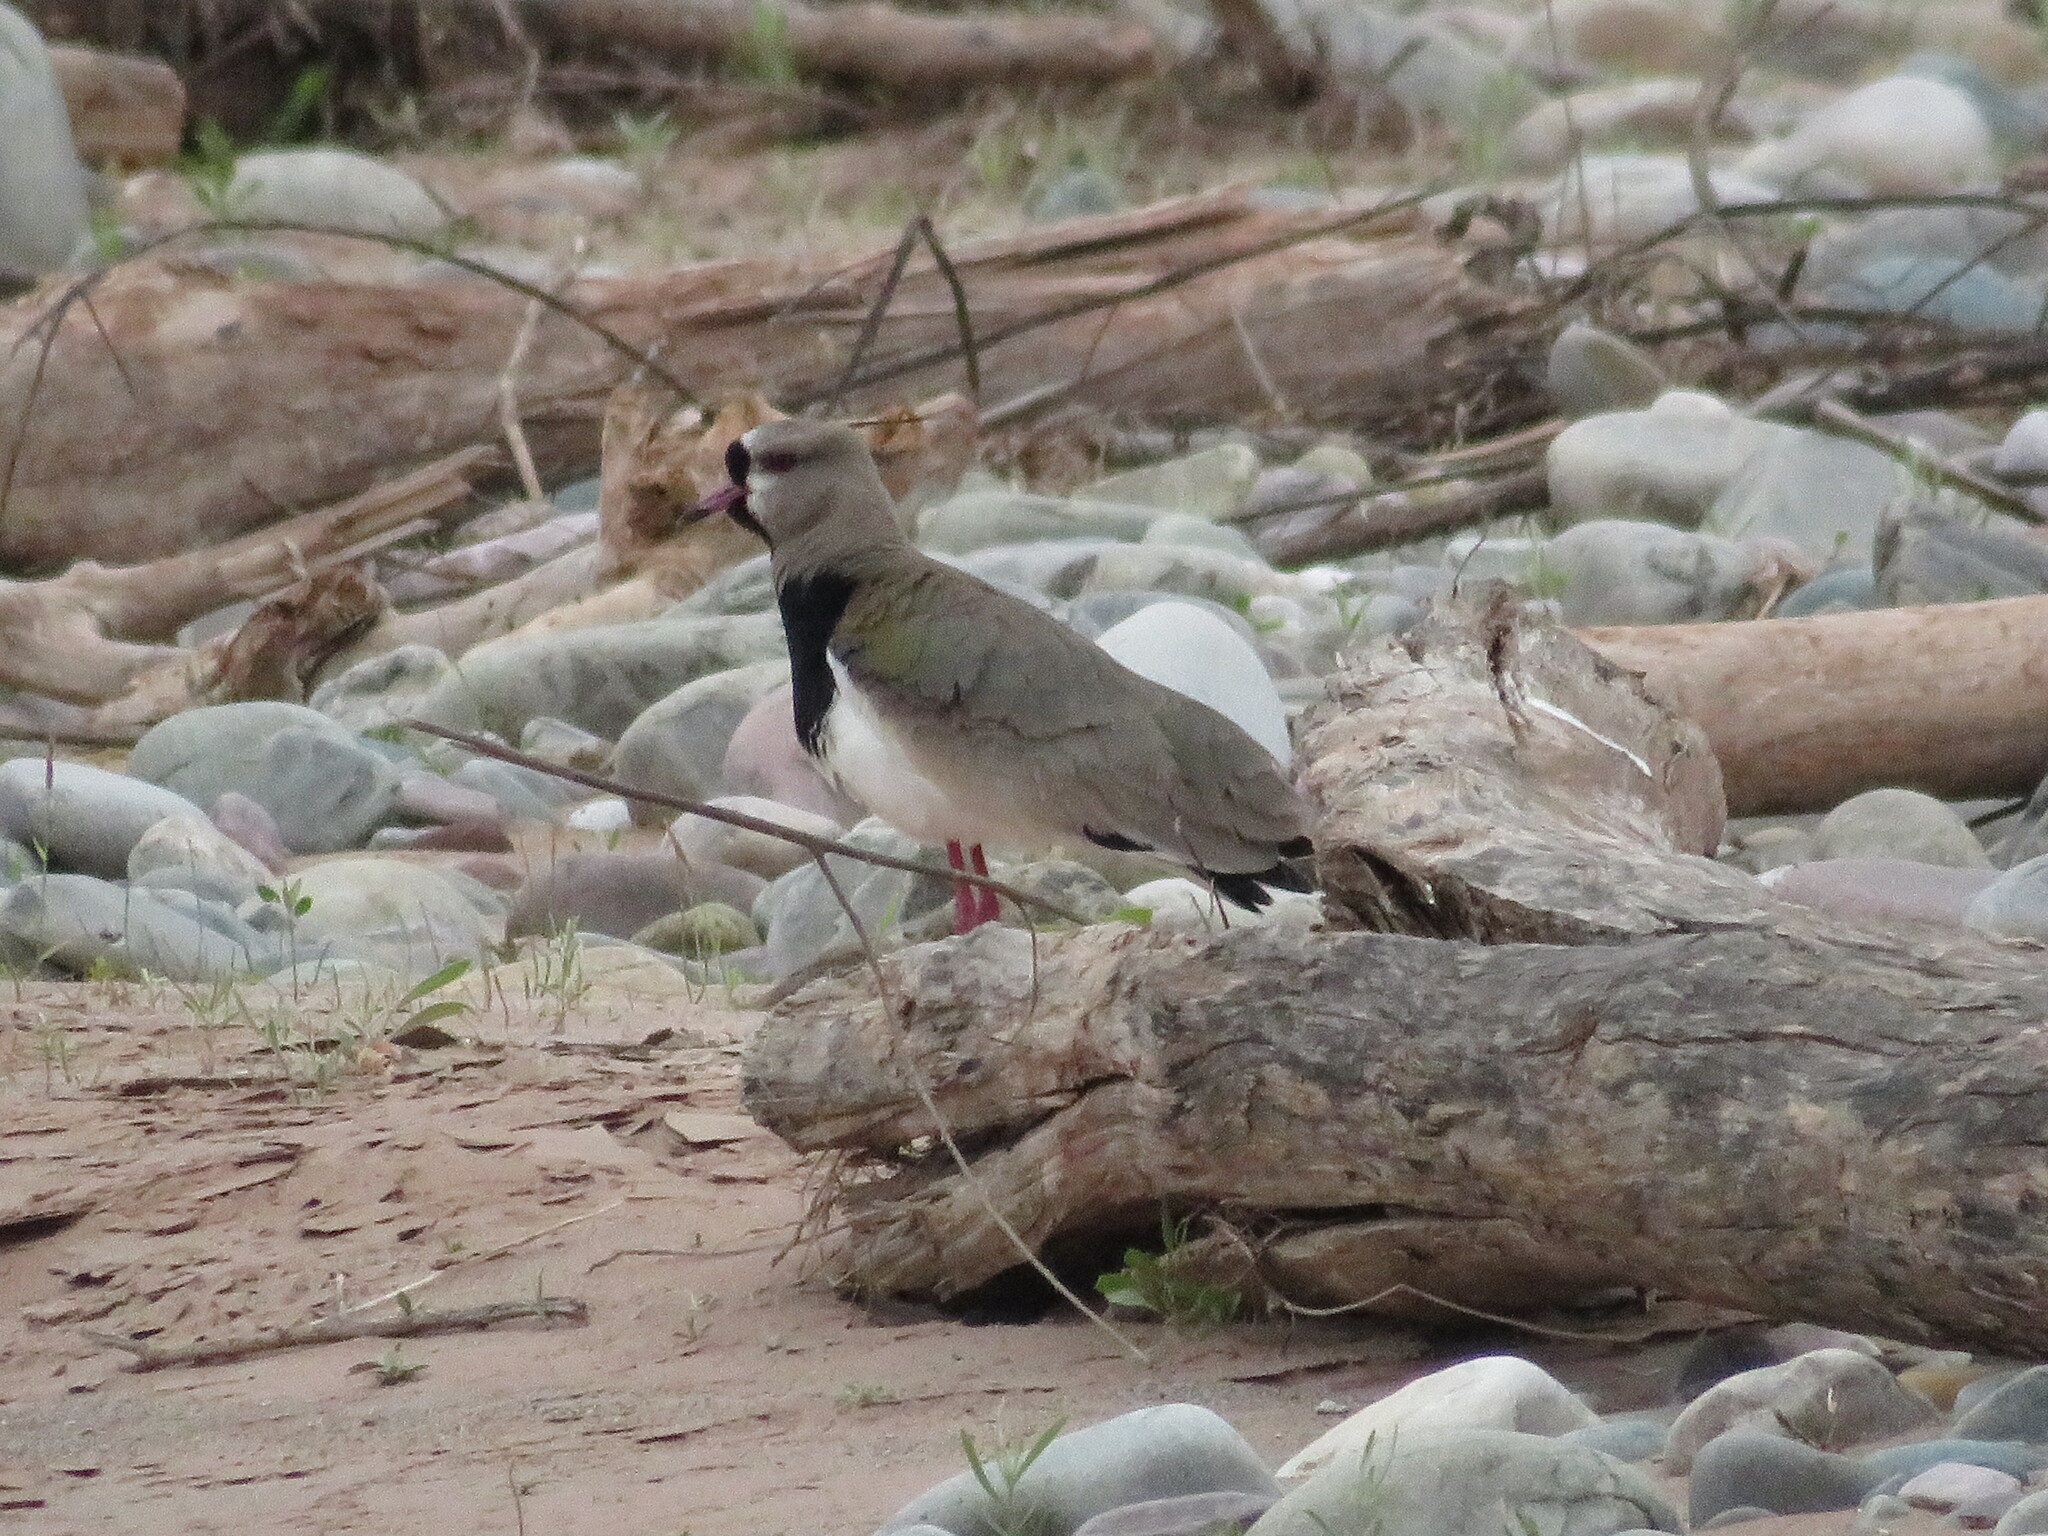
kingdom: Animalia
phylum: Chordata
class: Aves
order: Charadriiformes
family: Charadriidae
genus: Vanellus
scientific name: Vanellus chilensis
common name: Southern lapwing
